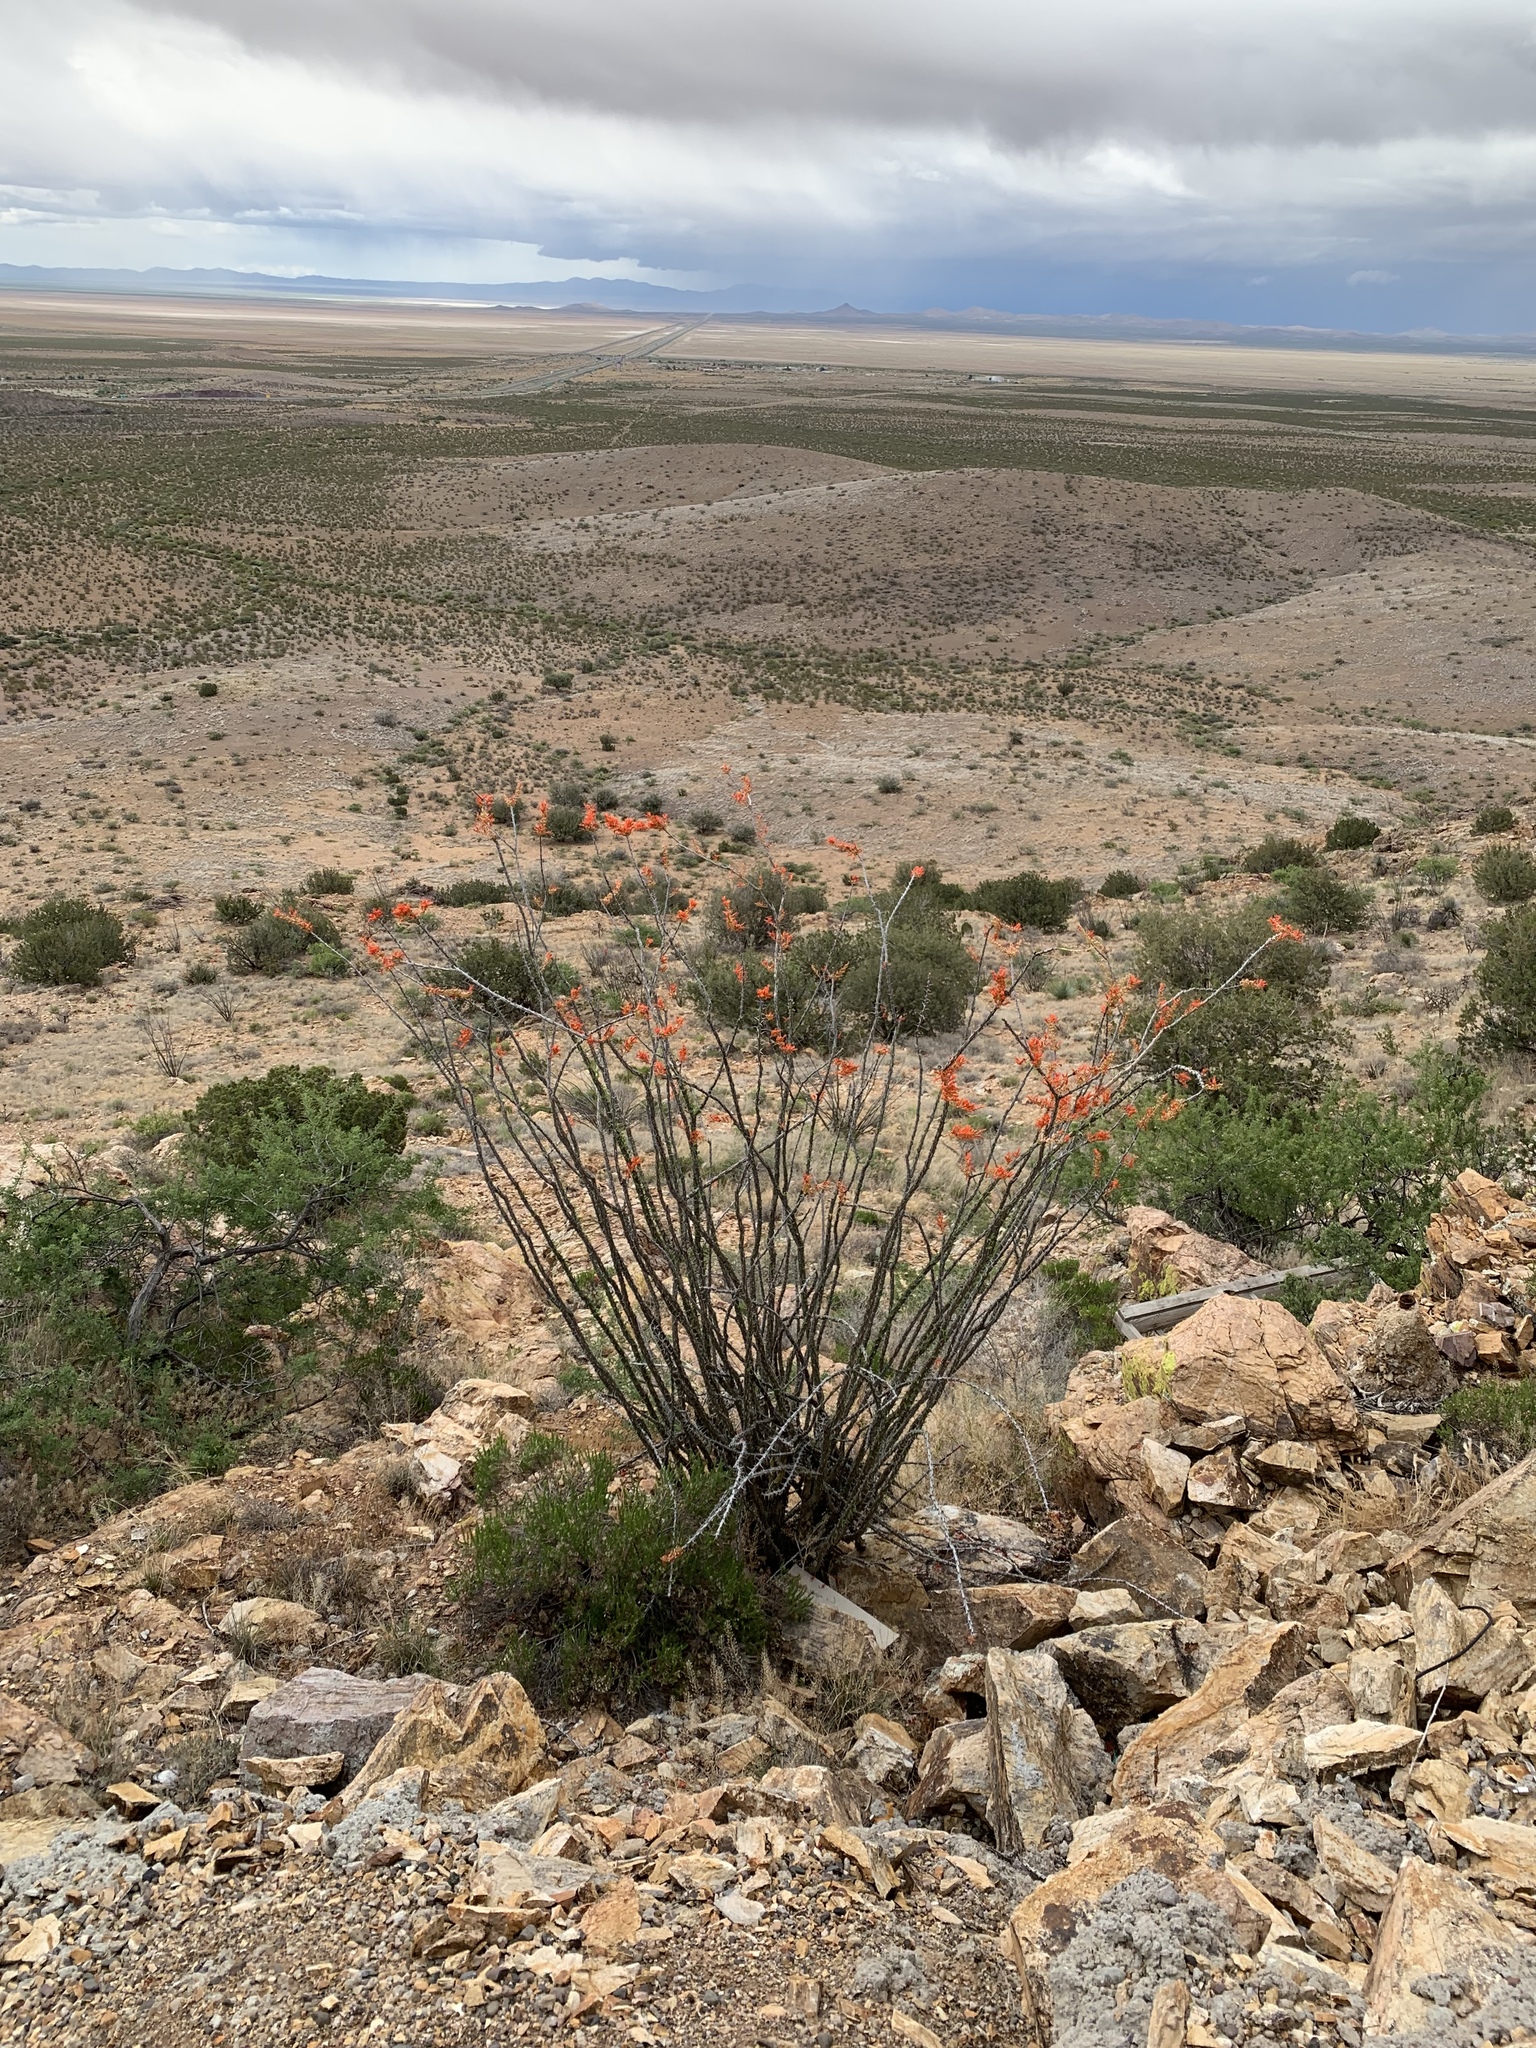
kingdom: Plantae
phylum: Tracheophyta
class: Magnoliopsida
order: Ericales
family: Fouquieriaceae
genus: Fouquieria
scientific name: Fouquieria splendens
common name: Vine-cactus
